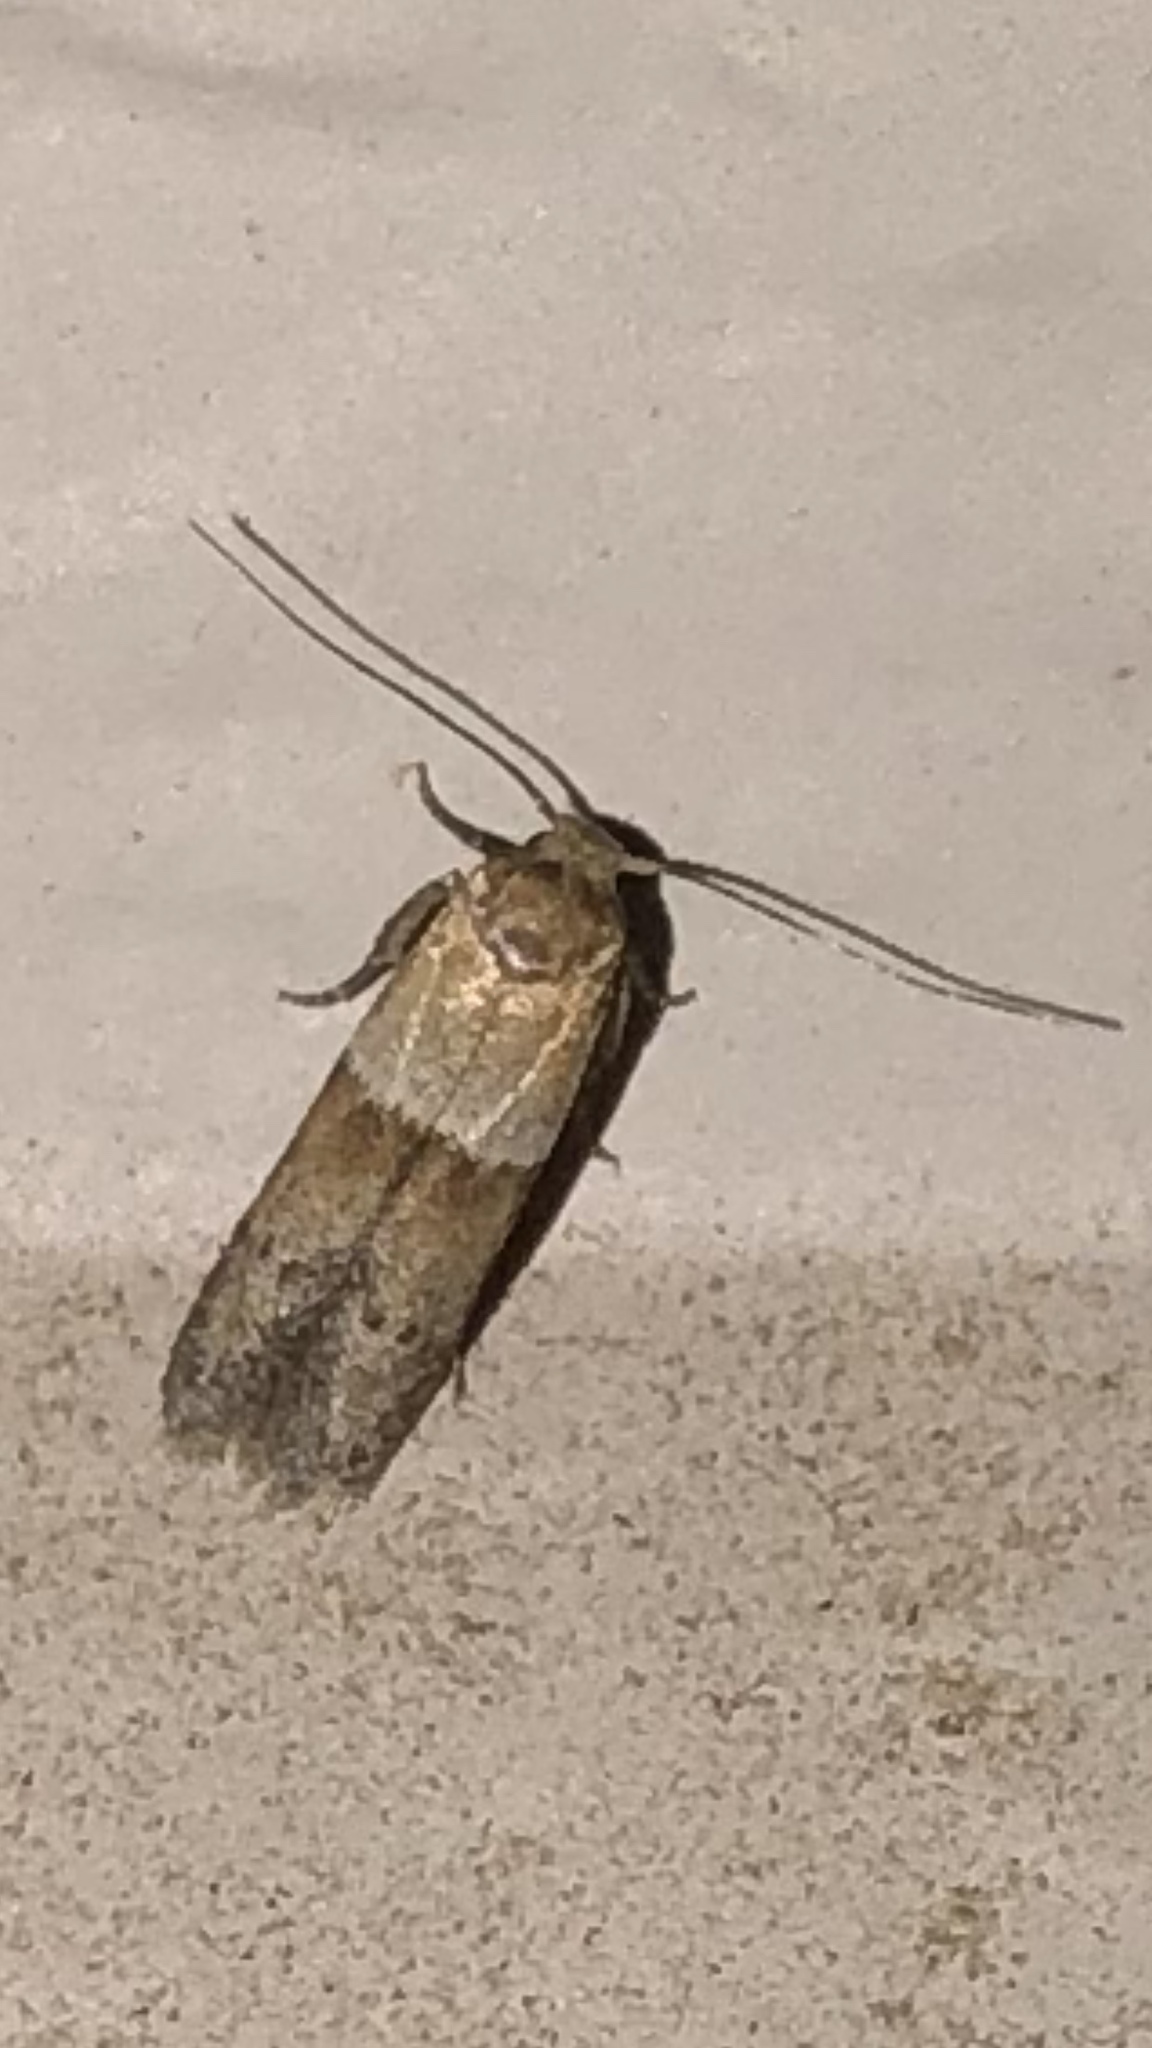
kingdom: Animalia
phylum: Arthropoda
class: Insecta
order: Lepidoptera
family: Blastobasidae
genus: Blastobasis
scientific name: Blastobasis pulchella
